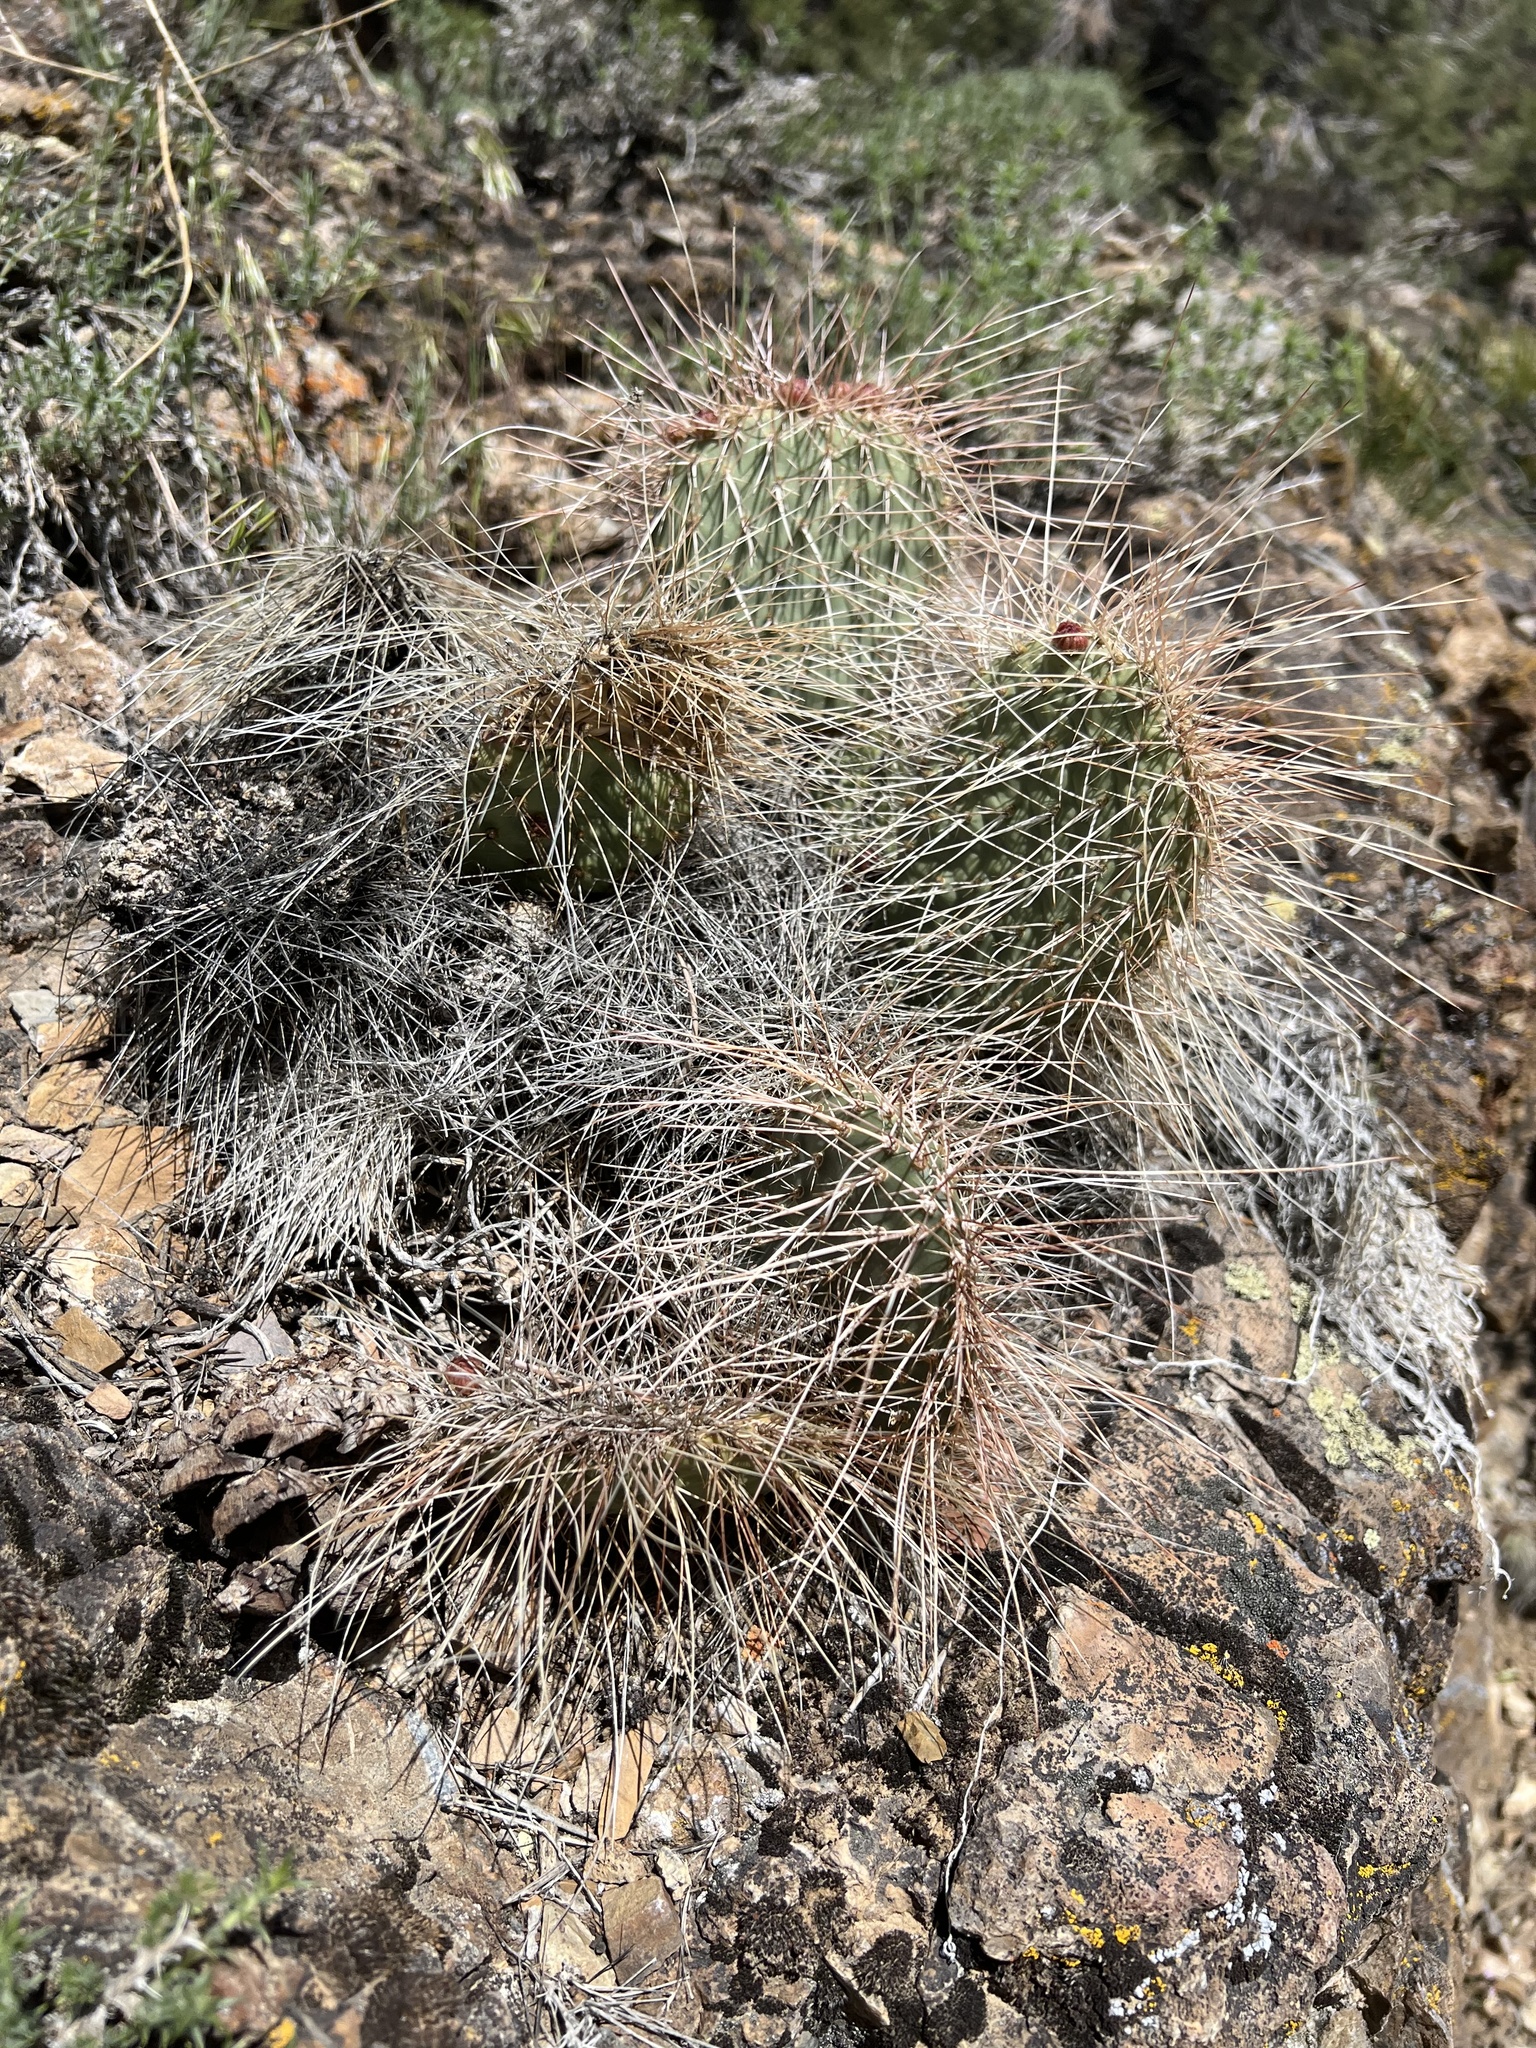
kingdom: Plantae
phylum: Tracheophyta
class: Magnoliopsida
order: Caryophyllales
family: Cactaceae
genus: Opuntia
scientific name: Opuntia polyacantha
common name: Plains prickly-pear
